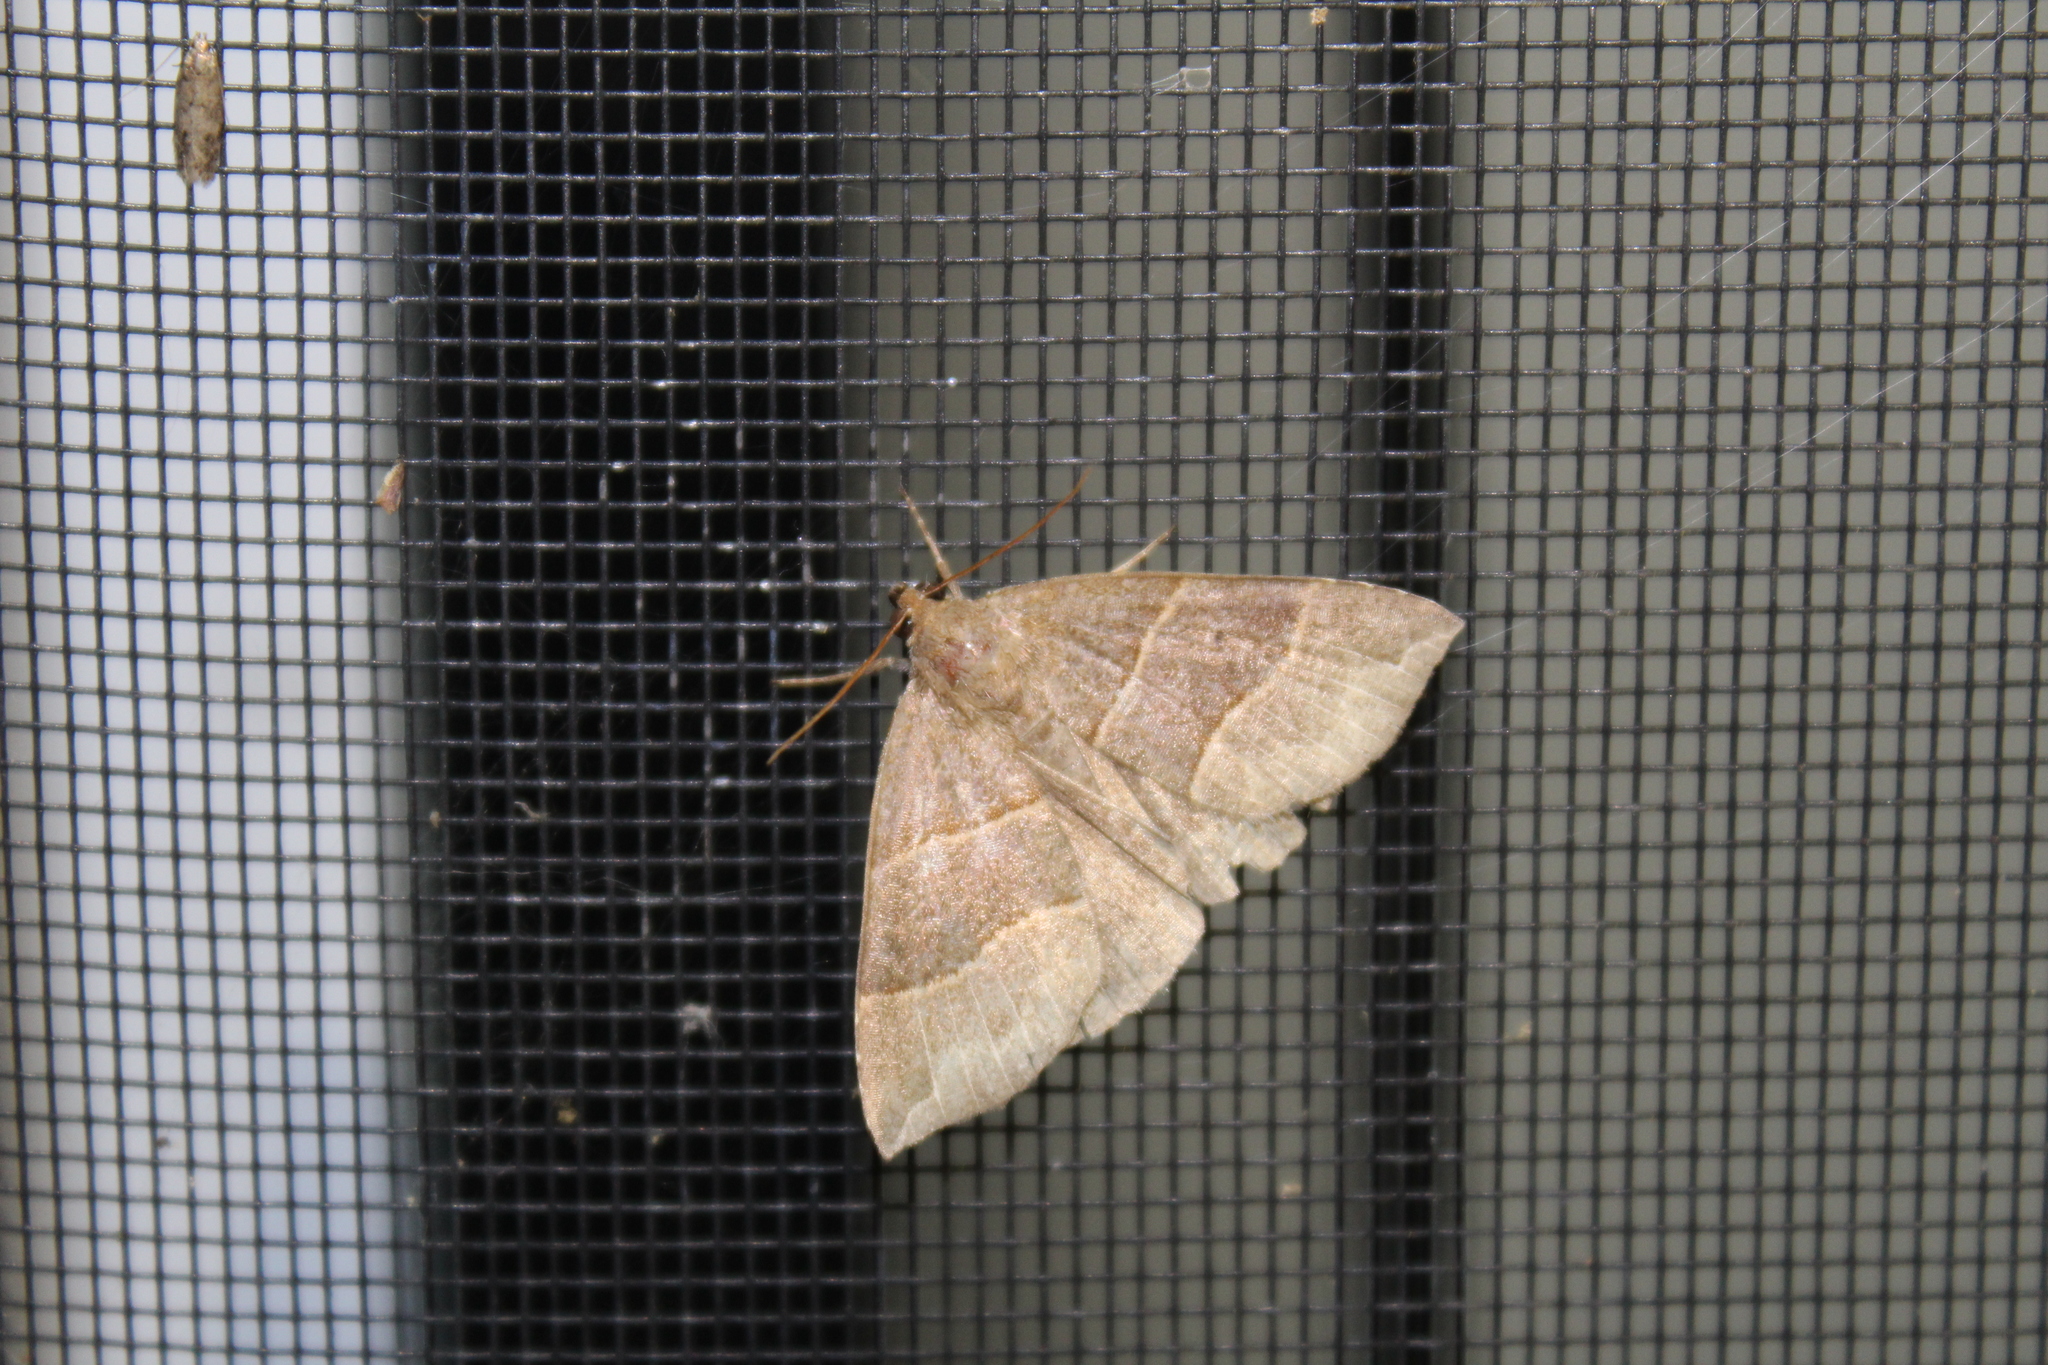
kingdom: Animalia
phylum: Arthropoda
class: Insecta
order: Lepidoptera
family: Erebidae
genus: Parallelia
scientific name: Parallelia bistriaris
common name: Maple looper moth
